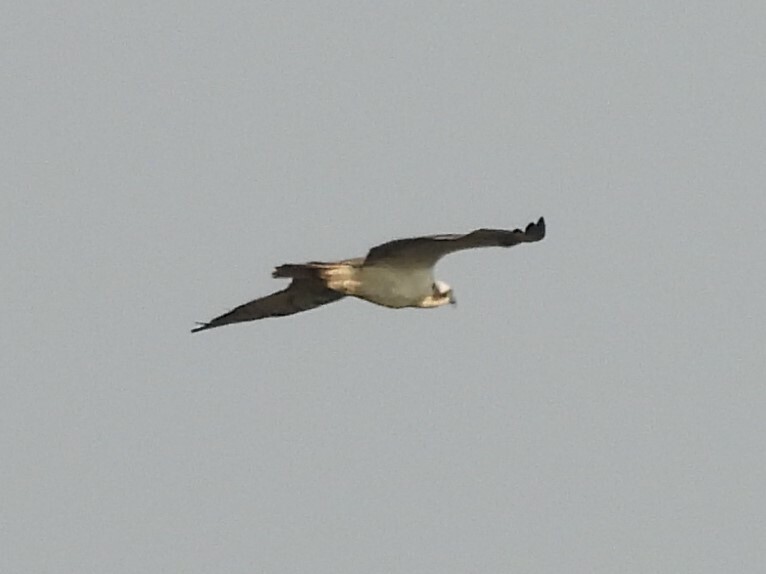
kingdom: Animalia
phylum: Chordata
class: Aves
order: Accipitriformes
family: Pandionidae
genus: Pandion
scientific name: Pandion haliaetus
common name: Osprey
